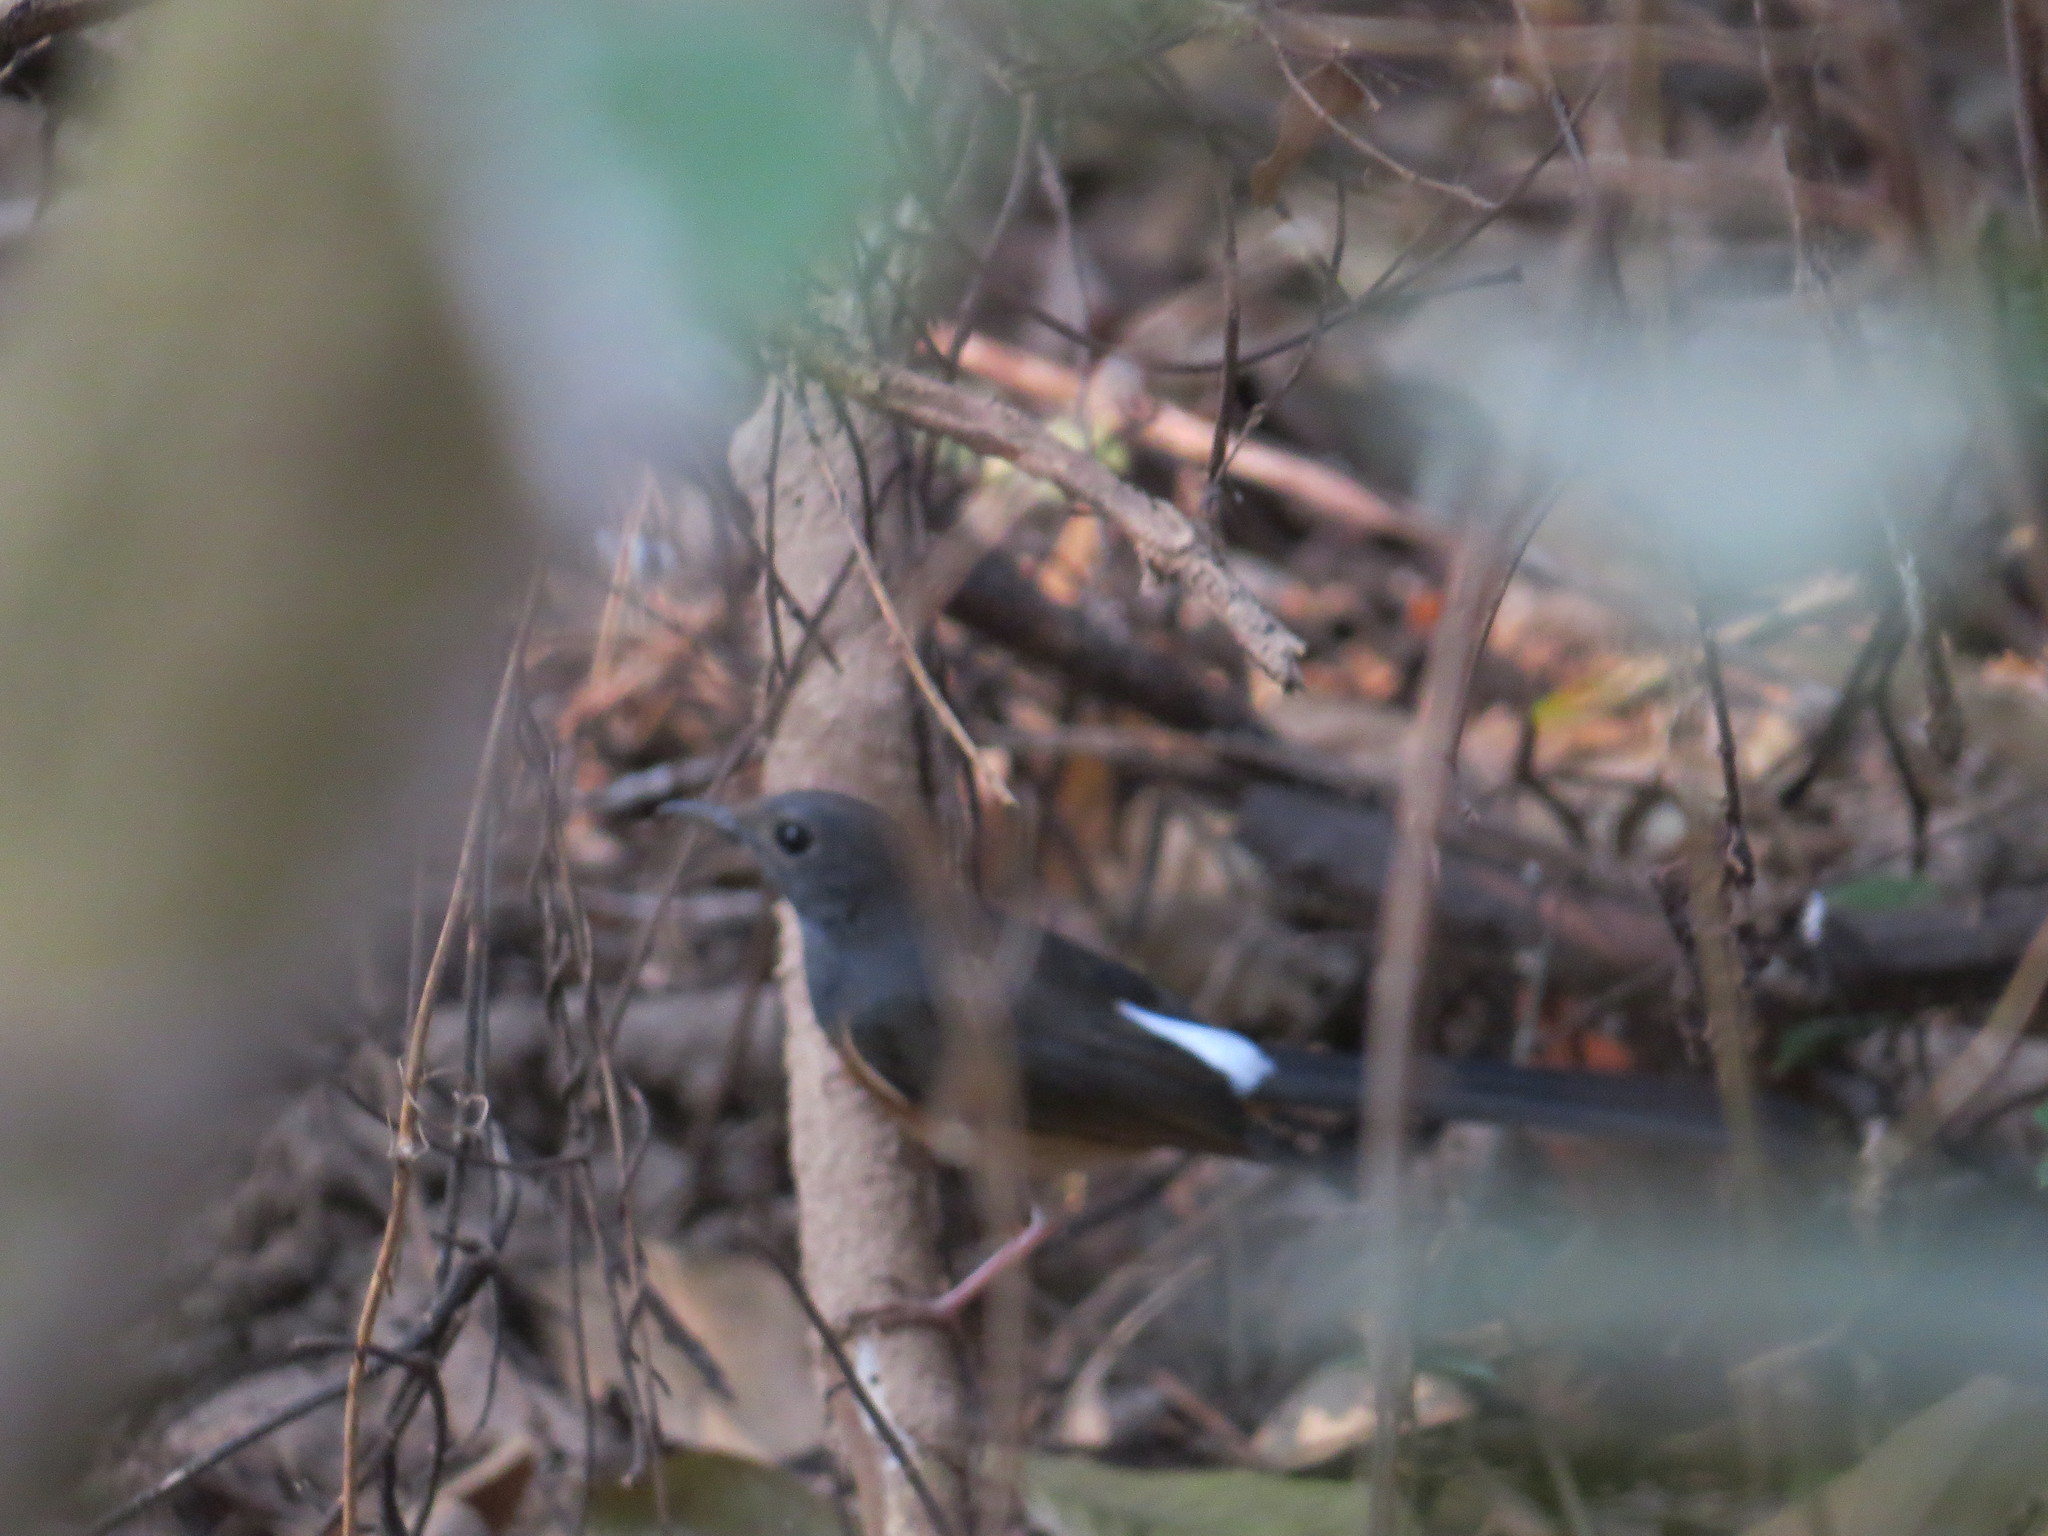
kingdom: Animalia
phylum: Chordata
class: Aves
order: Passeriformes
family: Muscicapidae
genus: Copsychus
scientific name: Copsychus malabaricus
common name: White-rumped shama
